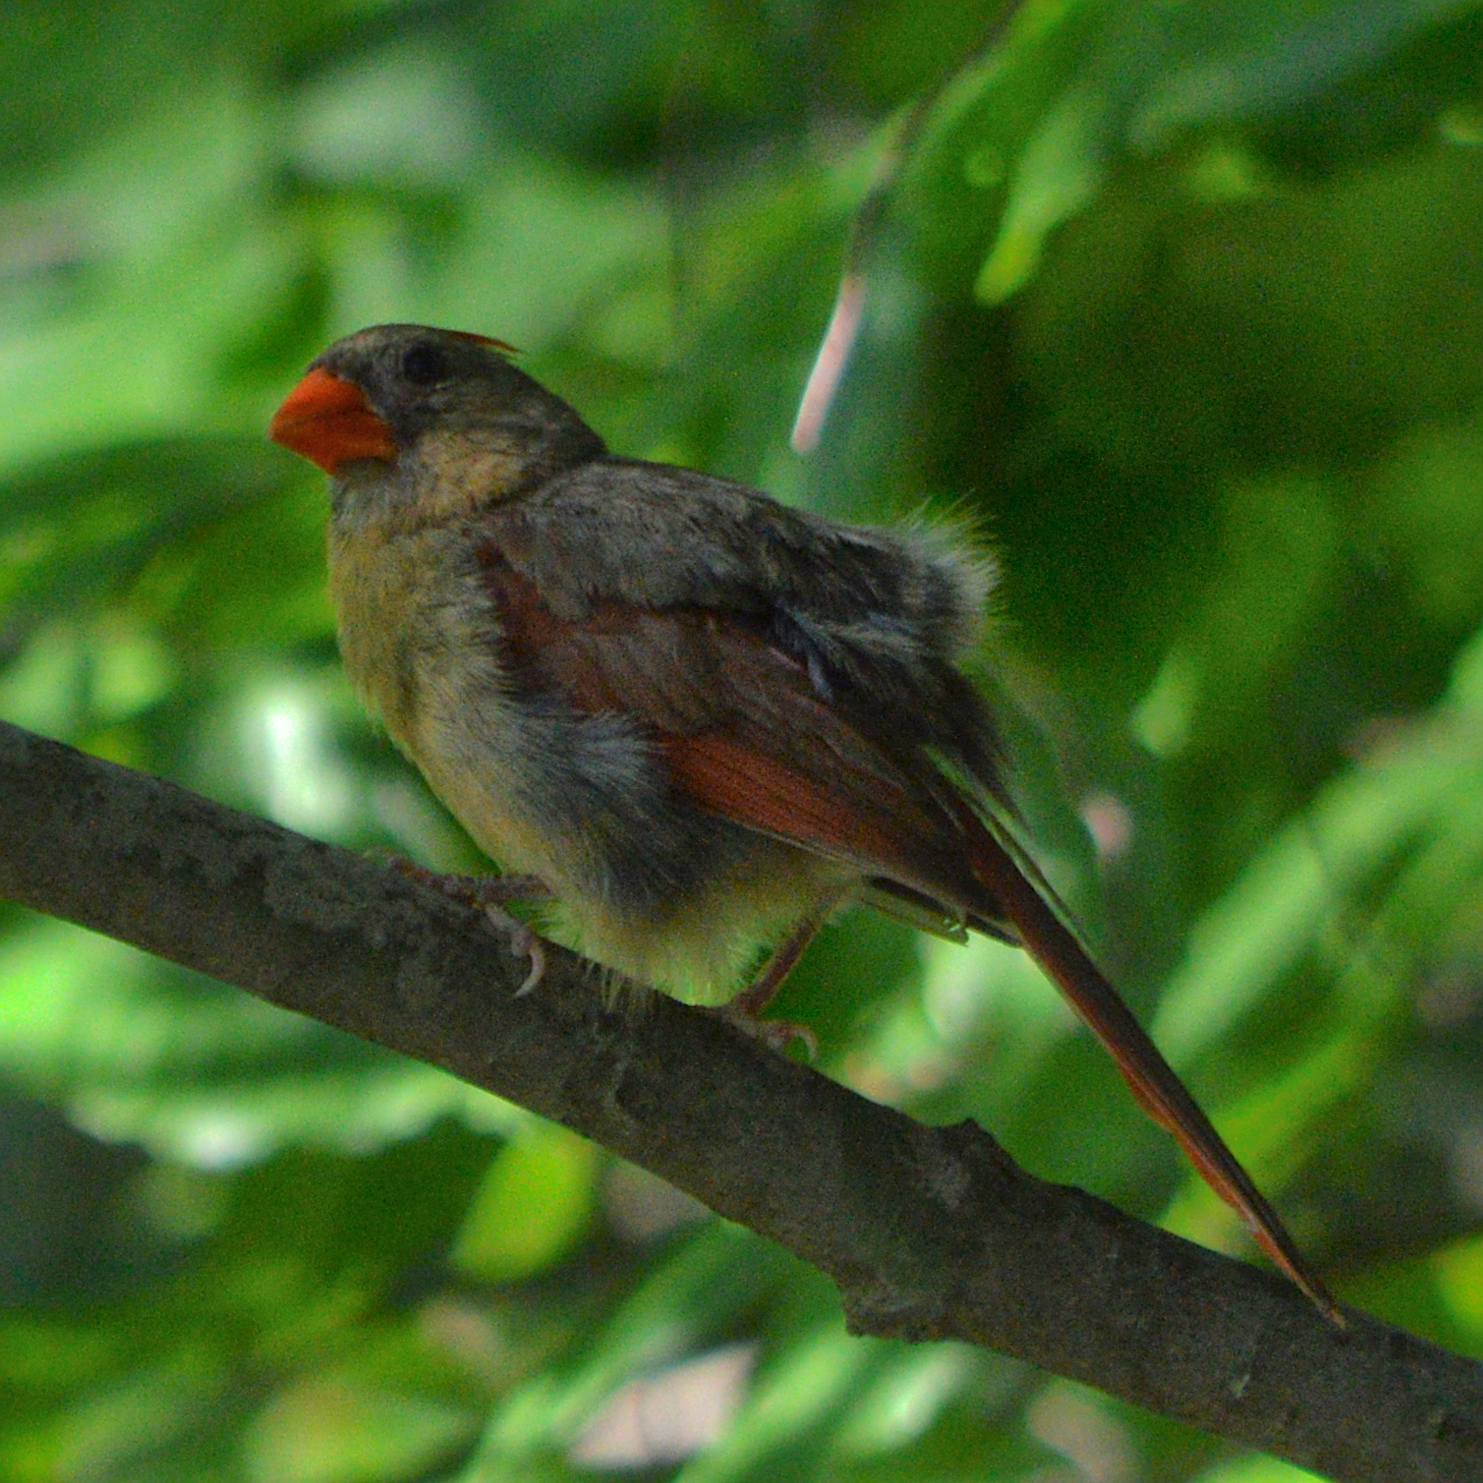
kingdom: Animalia
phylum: Chordata
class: Aves
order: Passeriformes
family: Cardinalidae
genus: Cardinalis
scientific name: Cardinalis cardinalis
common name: Northern cardinal
